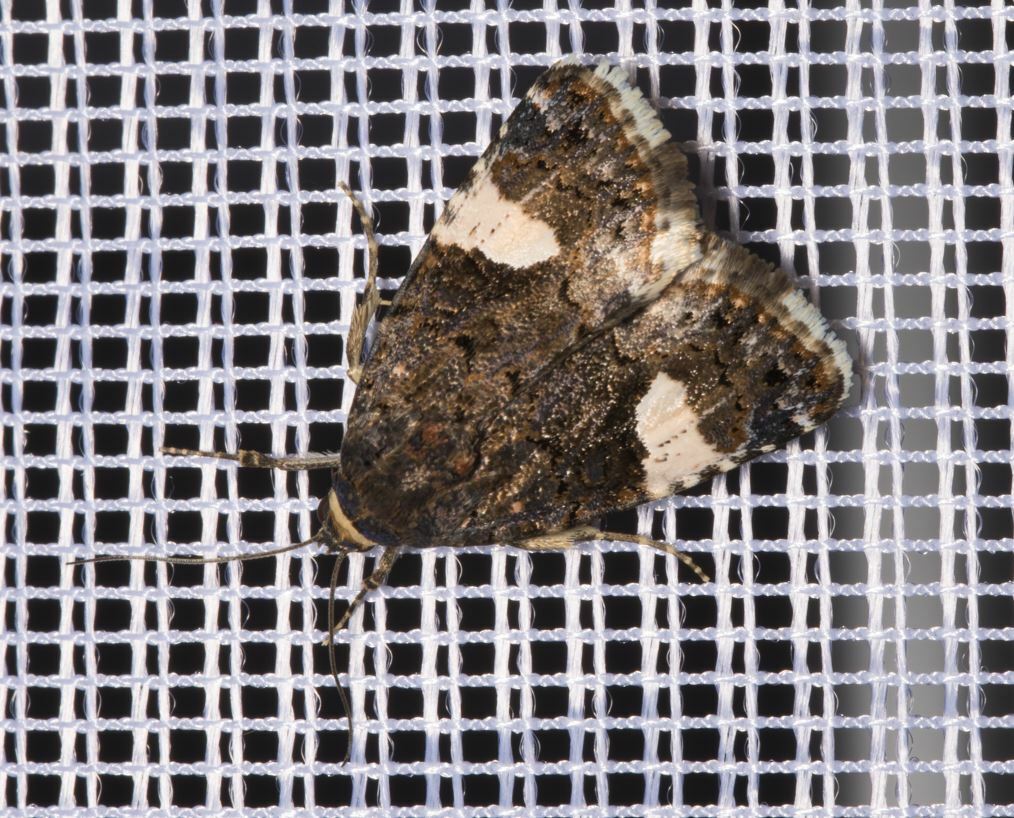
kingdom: Animalia
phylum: Arthropoda
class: Insecta
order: Lepidoptera
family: Erebidae
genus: Tyta
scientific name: Tyta luctuosa
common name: Four-spotted
